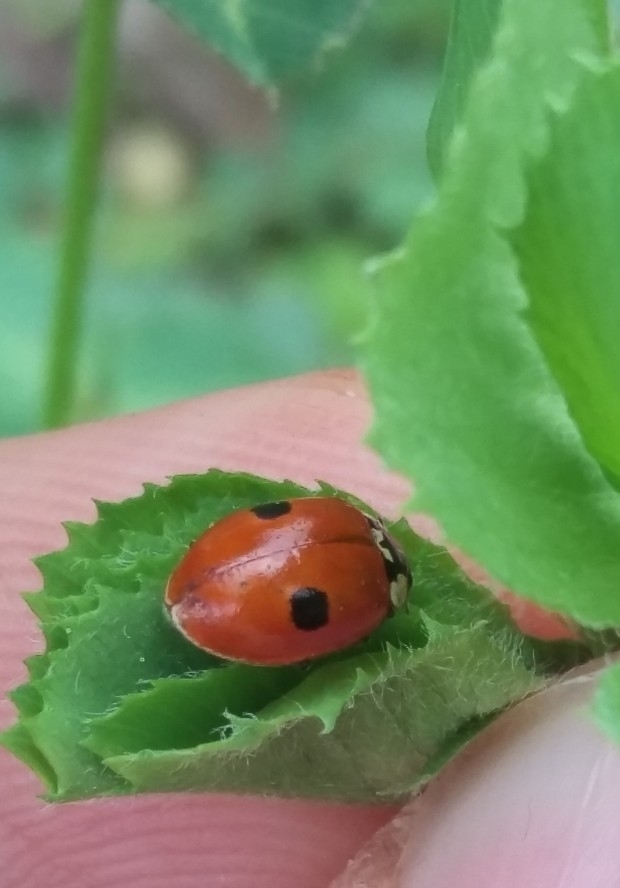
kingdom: Animalia
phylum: Arthropoda
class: Insecta
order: Coleoptera
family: Coccinellidae
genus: Adalia
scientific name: Adalia bipunctata
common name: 2-spot ladybird
